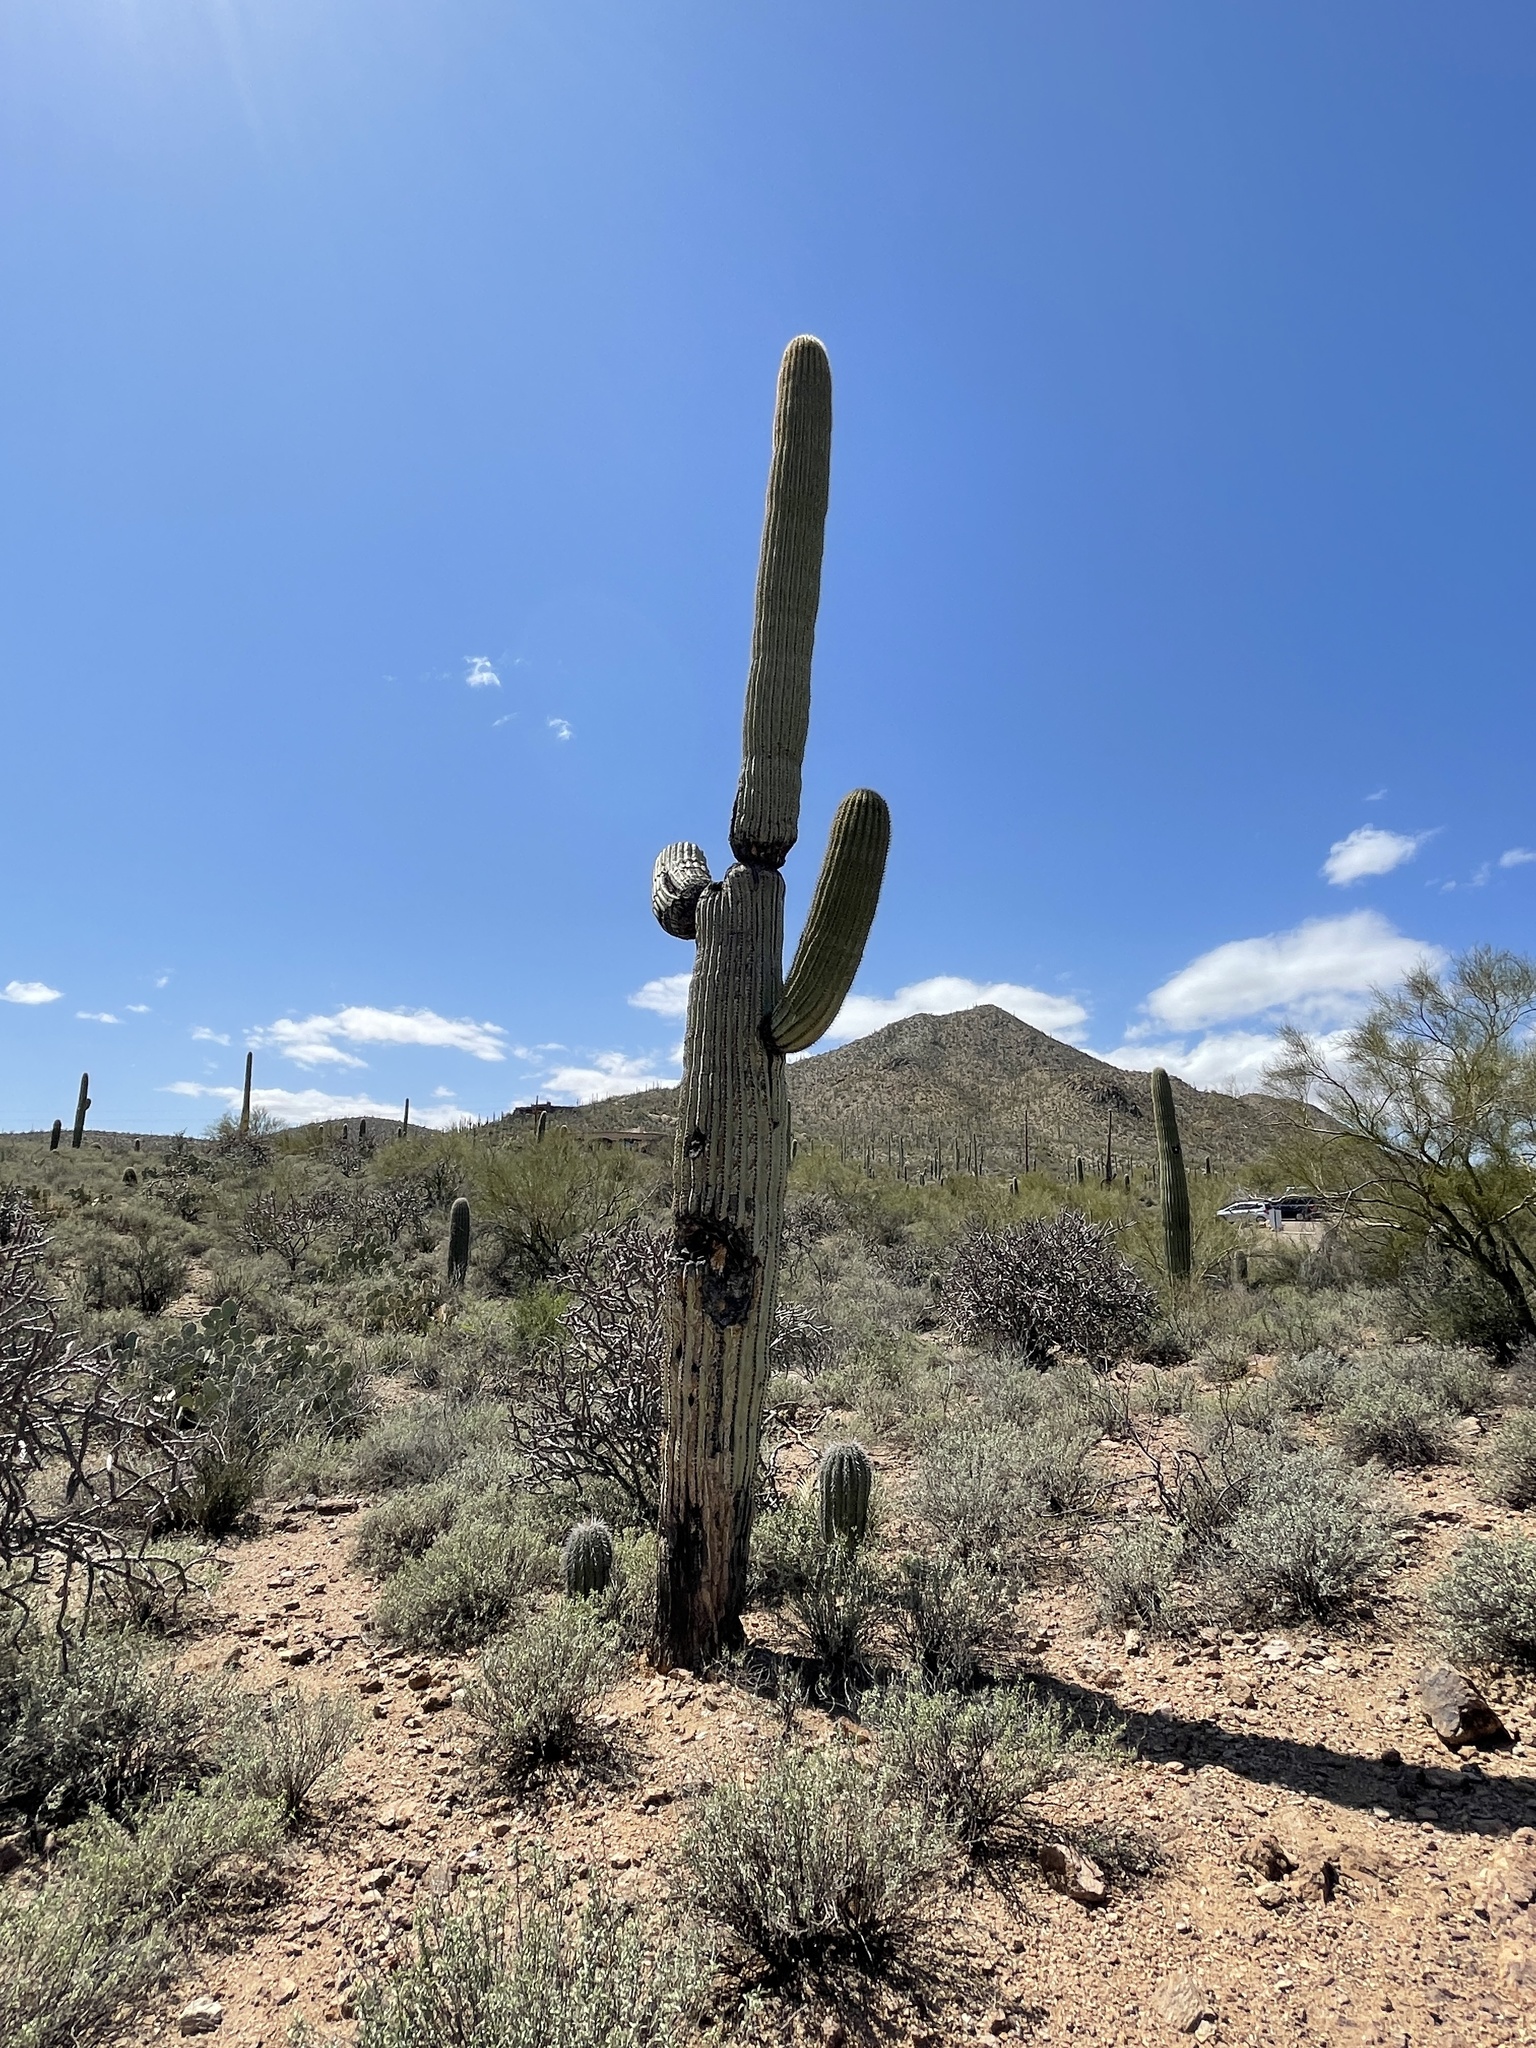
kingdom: Plantae
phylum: Tracheophyta
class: Magnoliopsida
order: Caryophyllales
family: Cactaceae
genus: Carnegiea
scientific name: Carnegiea gigantea
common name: Saguaro
